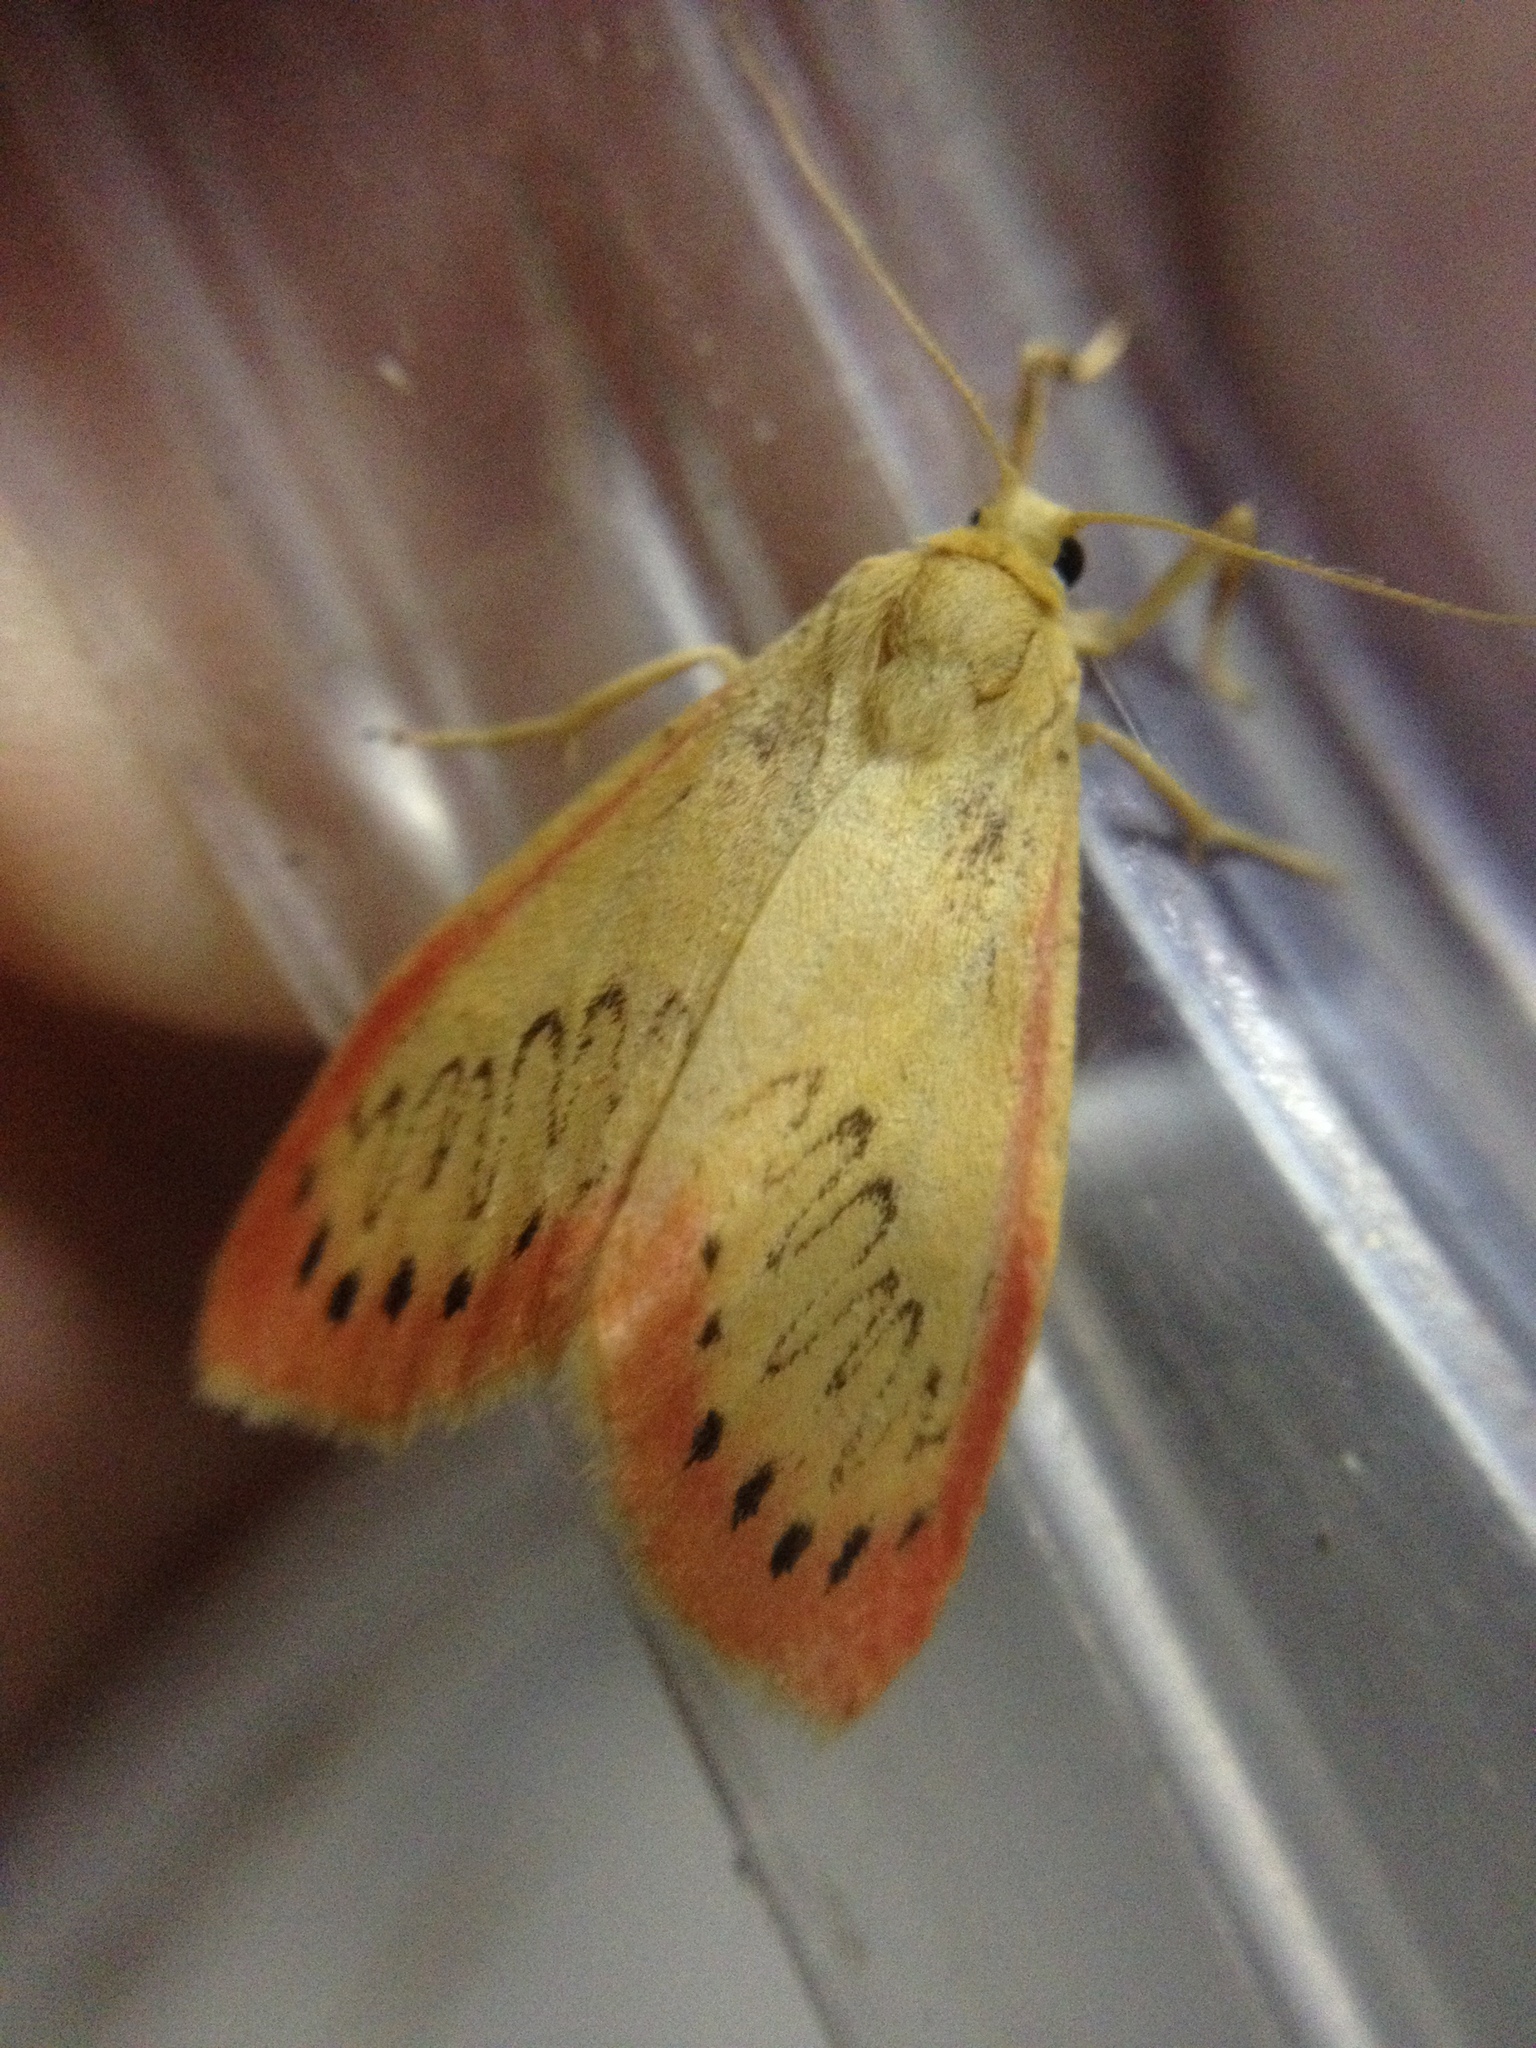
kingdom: Animalia
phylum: Arthropoda
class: Insecta
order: Lepidoptera
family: Erebidae
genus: Miltochrista
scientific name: Miltochrista miniata
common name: Rosy footman
